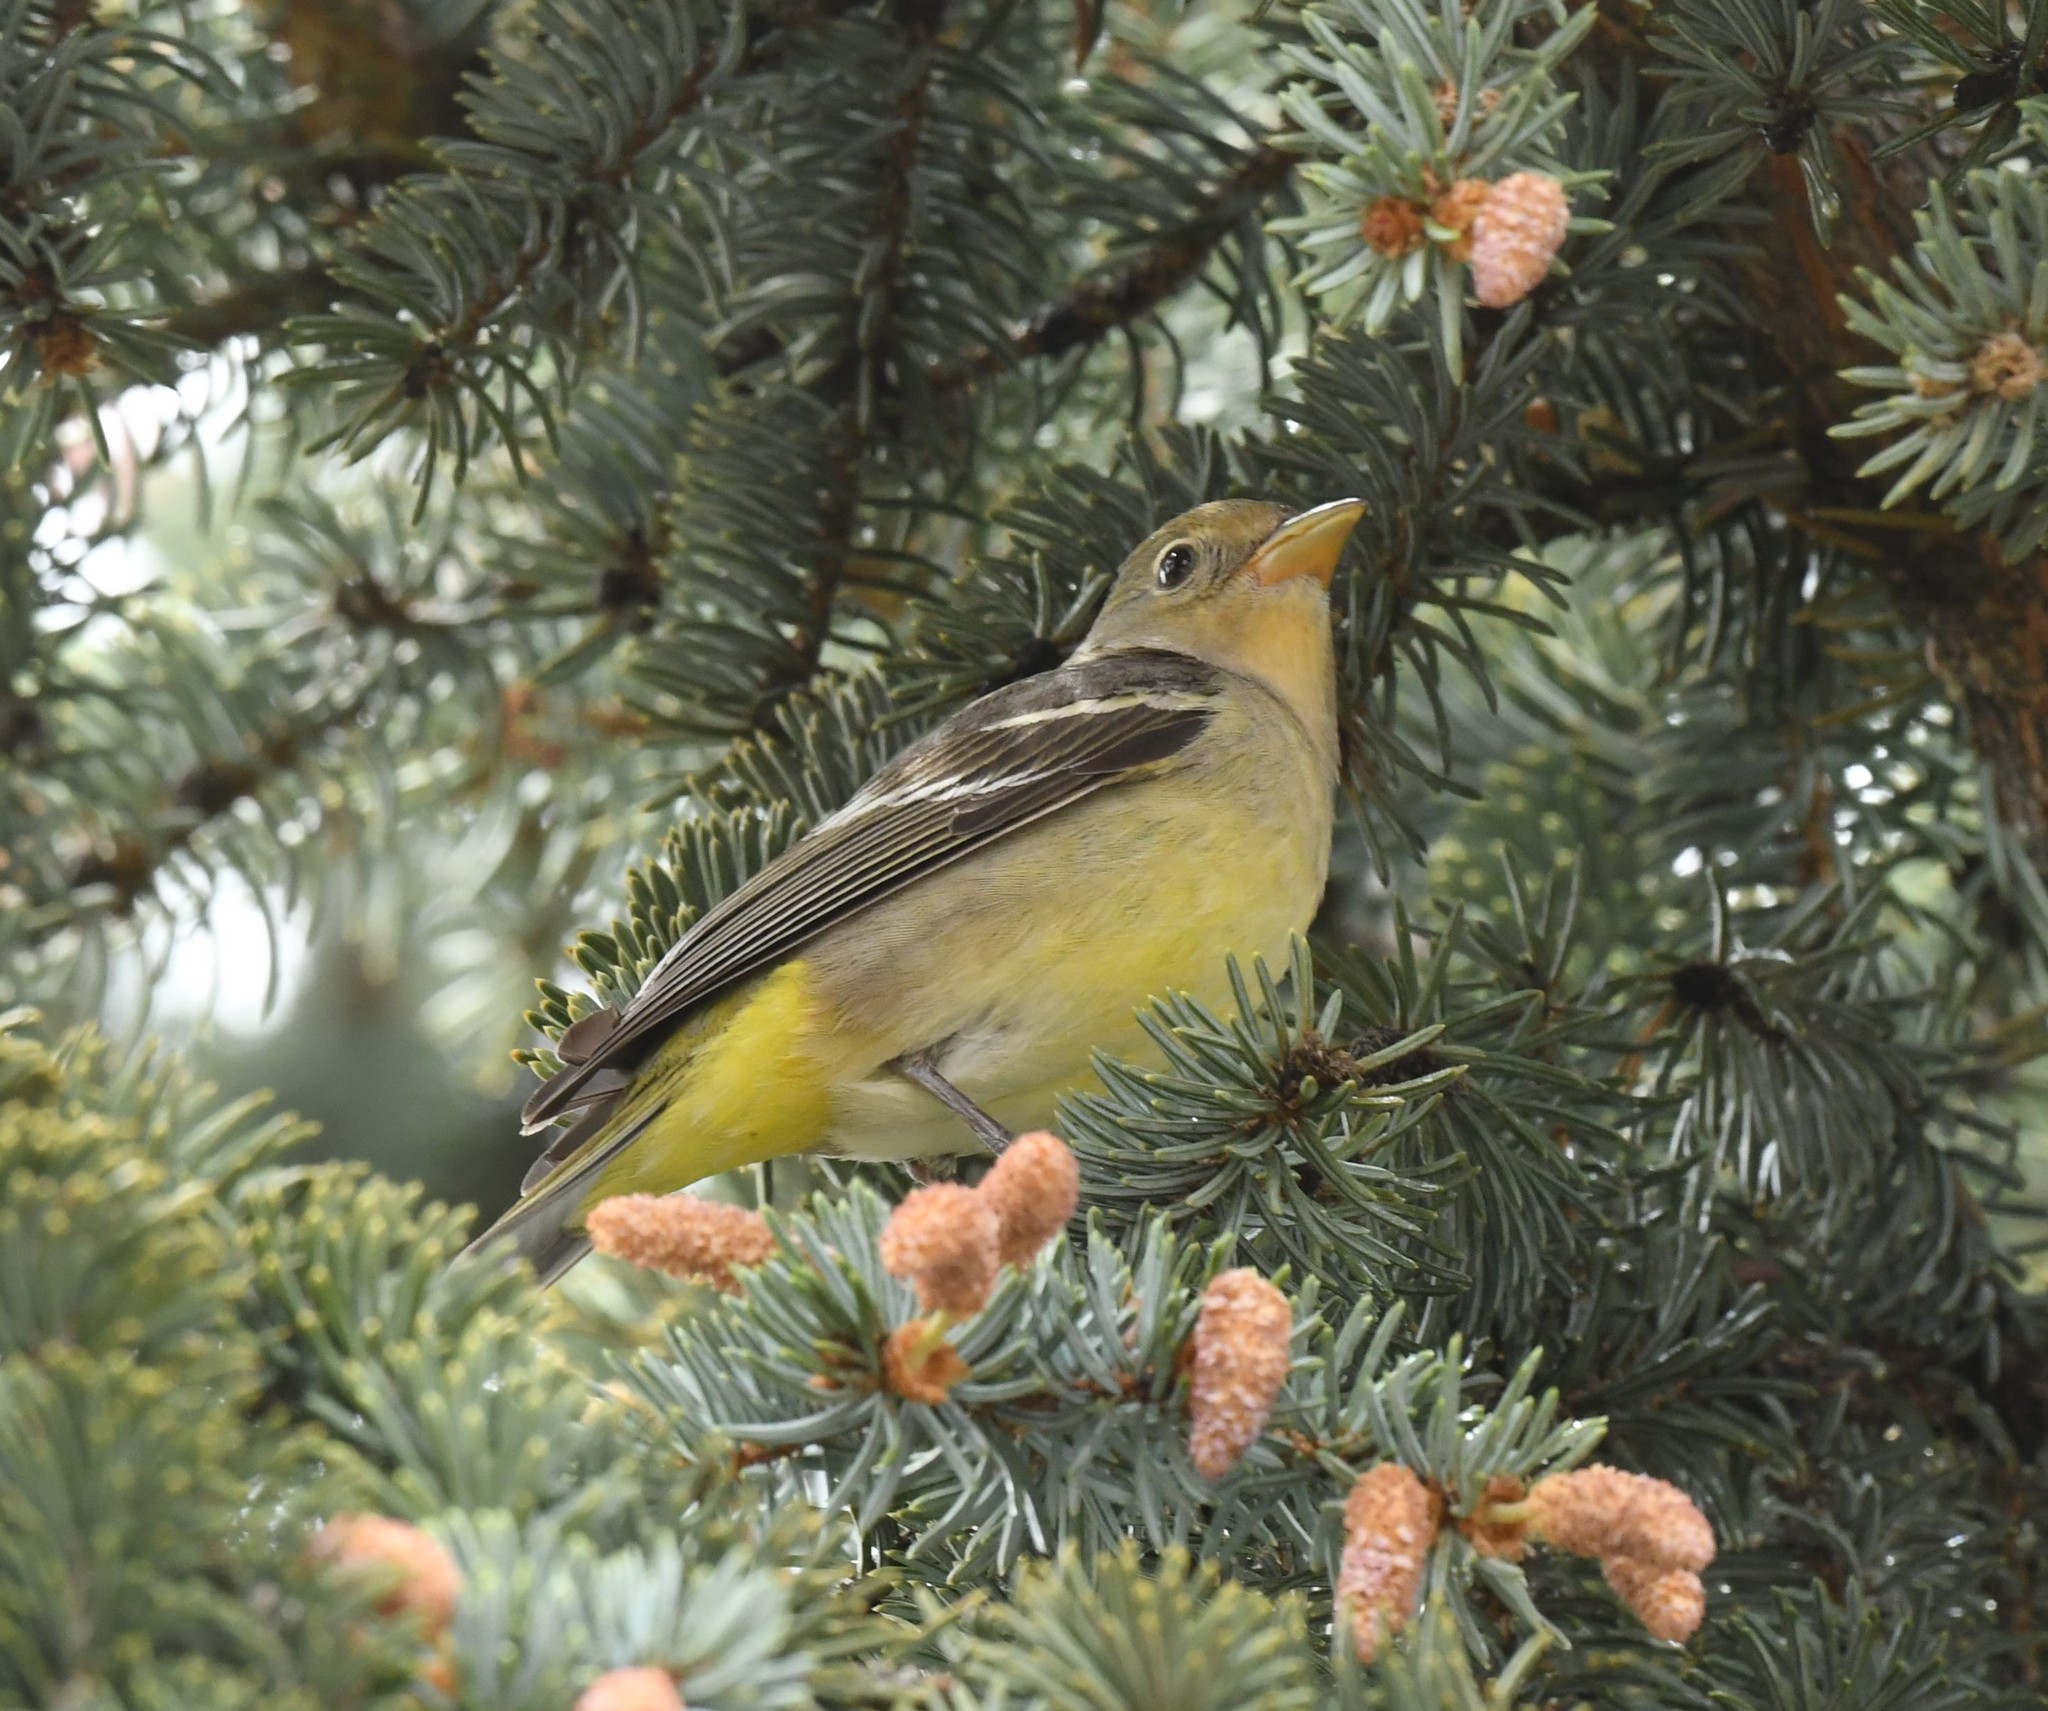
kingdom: Animalia
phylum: Chordata
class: Aves
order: Passeriformes
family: Cardinalidae
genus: Piranga
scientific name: Piranga ludoviciana
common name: Western tanager
